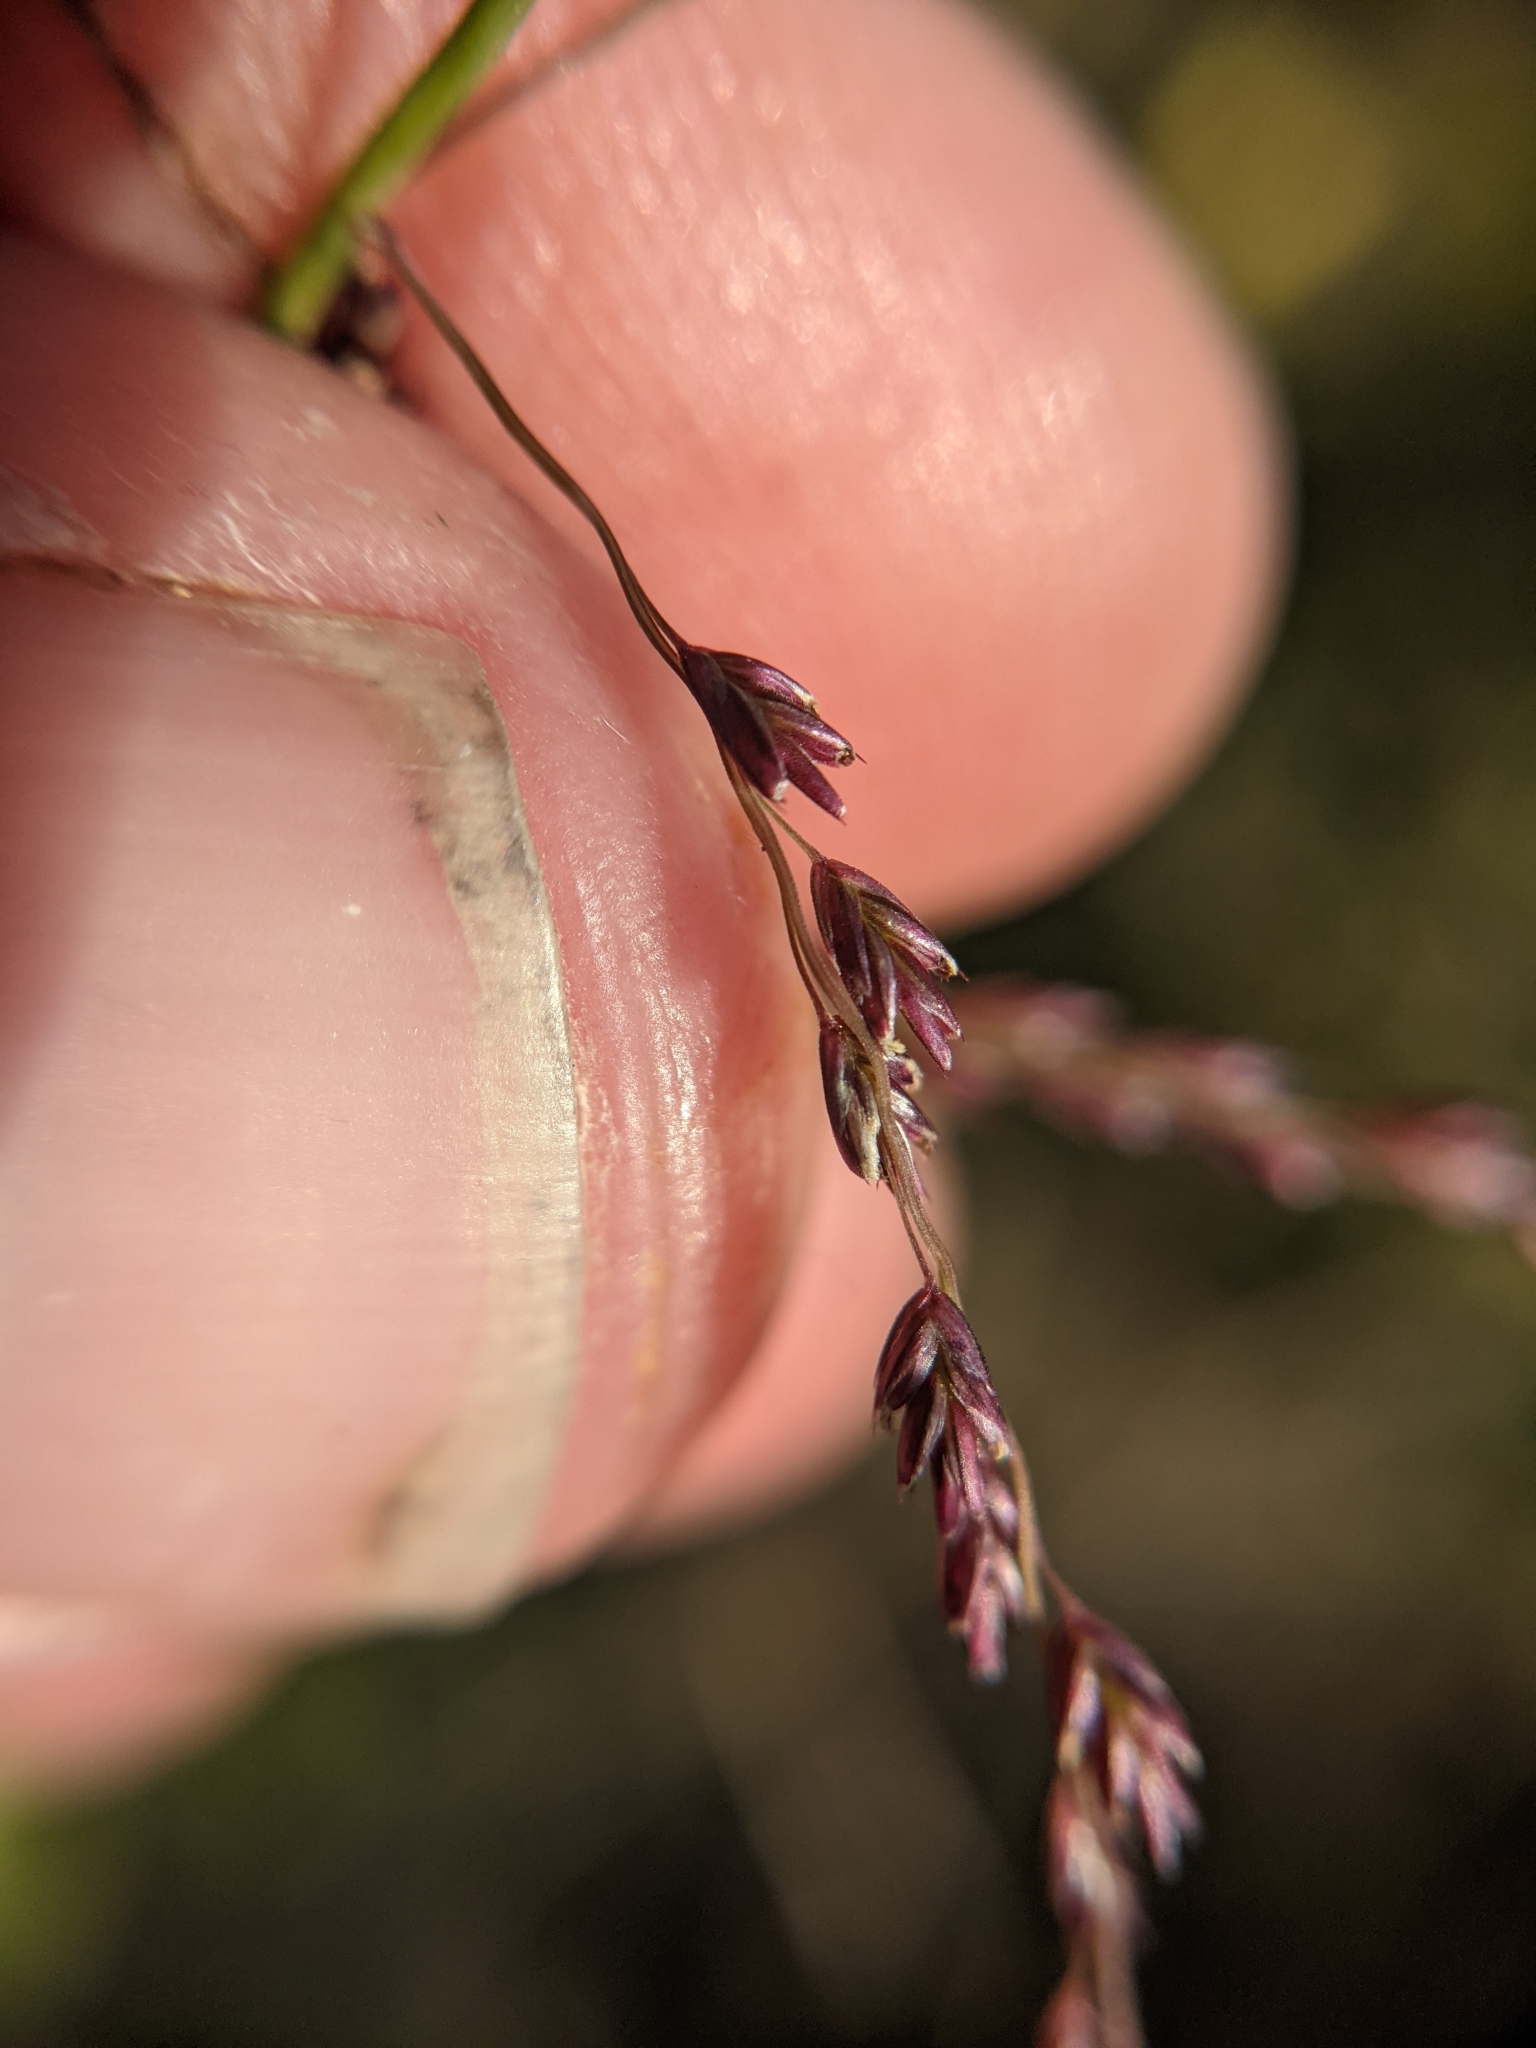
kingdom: Plantae
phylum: Tracheophyta
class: Liliopsida
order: Poales
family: Poaceae
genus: Triplasiella
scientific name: Triplasiella eragrostoides
